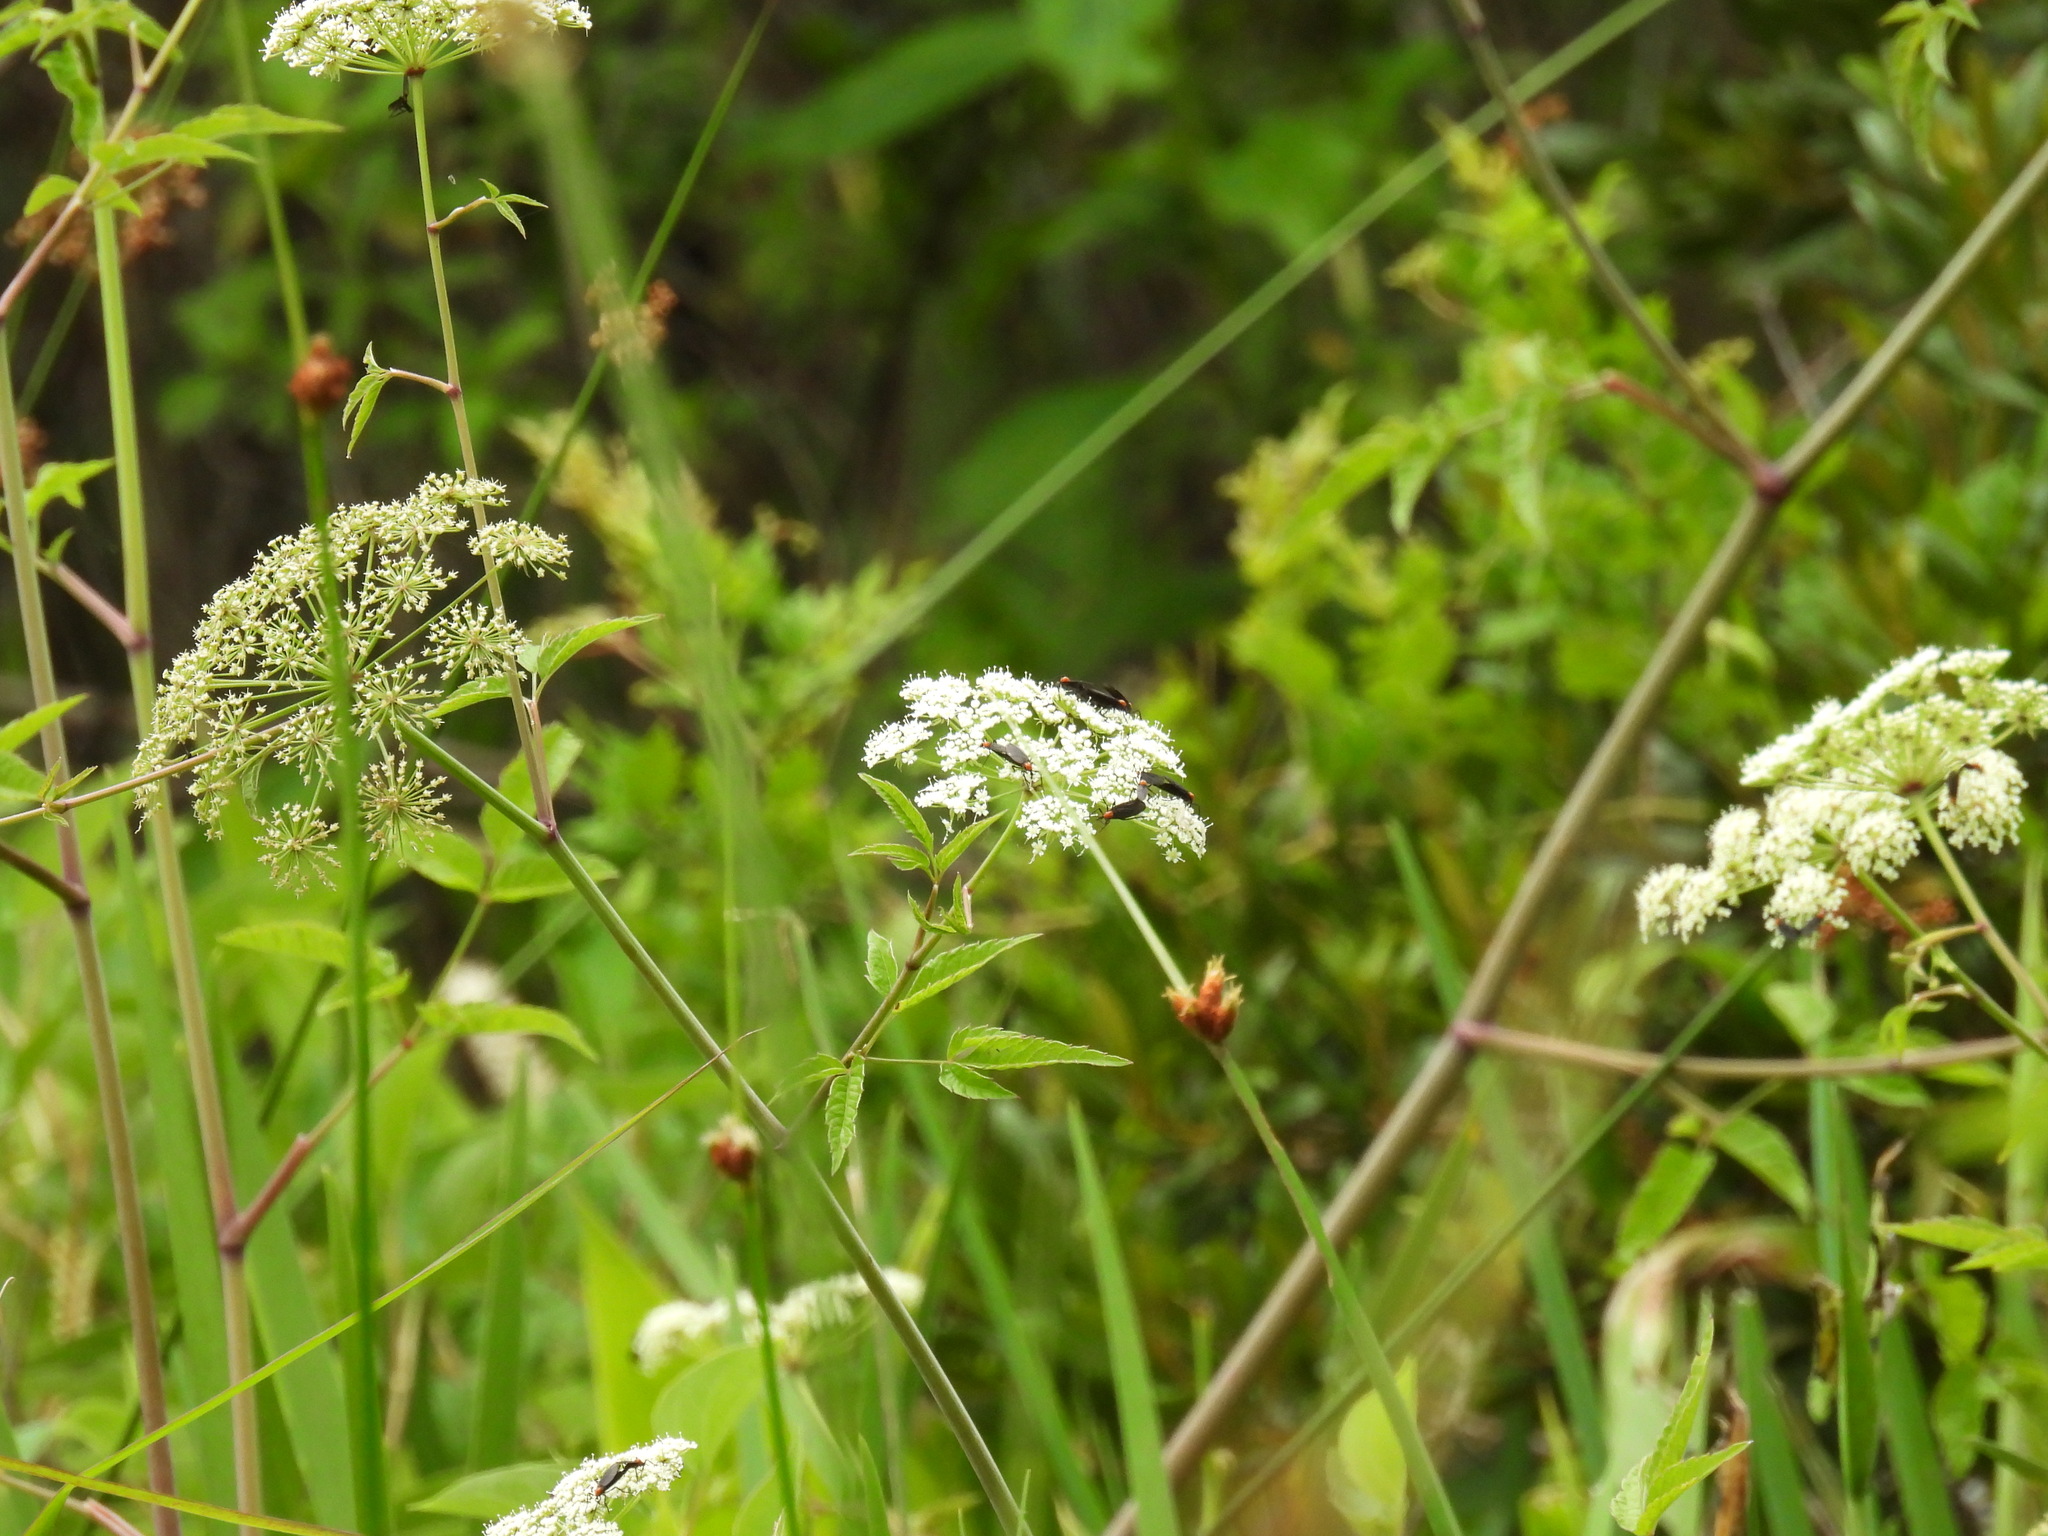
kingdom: Plantae
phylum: Tracheophyta
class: Magnoliopsida
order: Apiales
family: Apiaceae
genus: Cicuta
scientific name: Cicuta maculata
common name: Spotted cowbane
